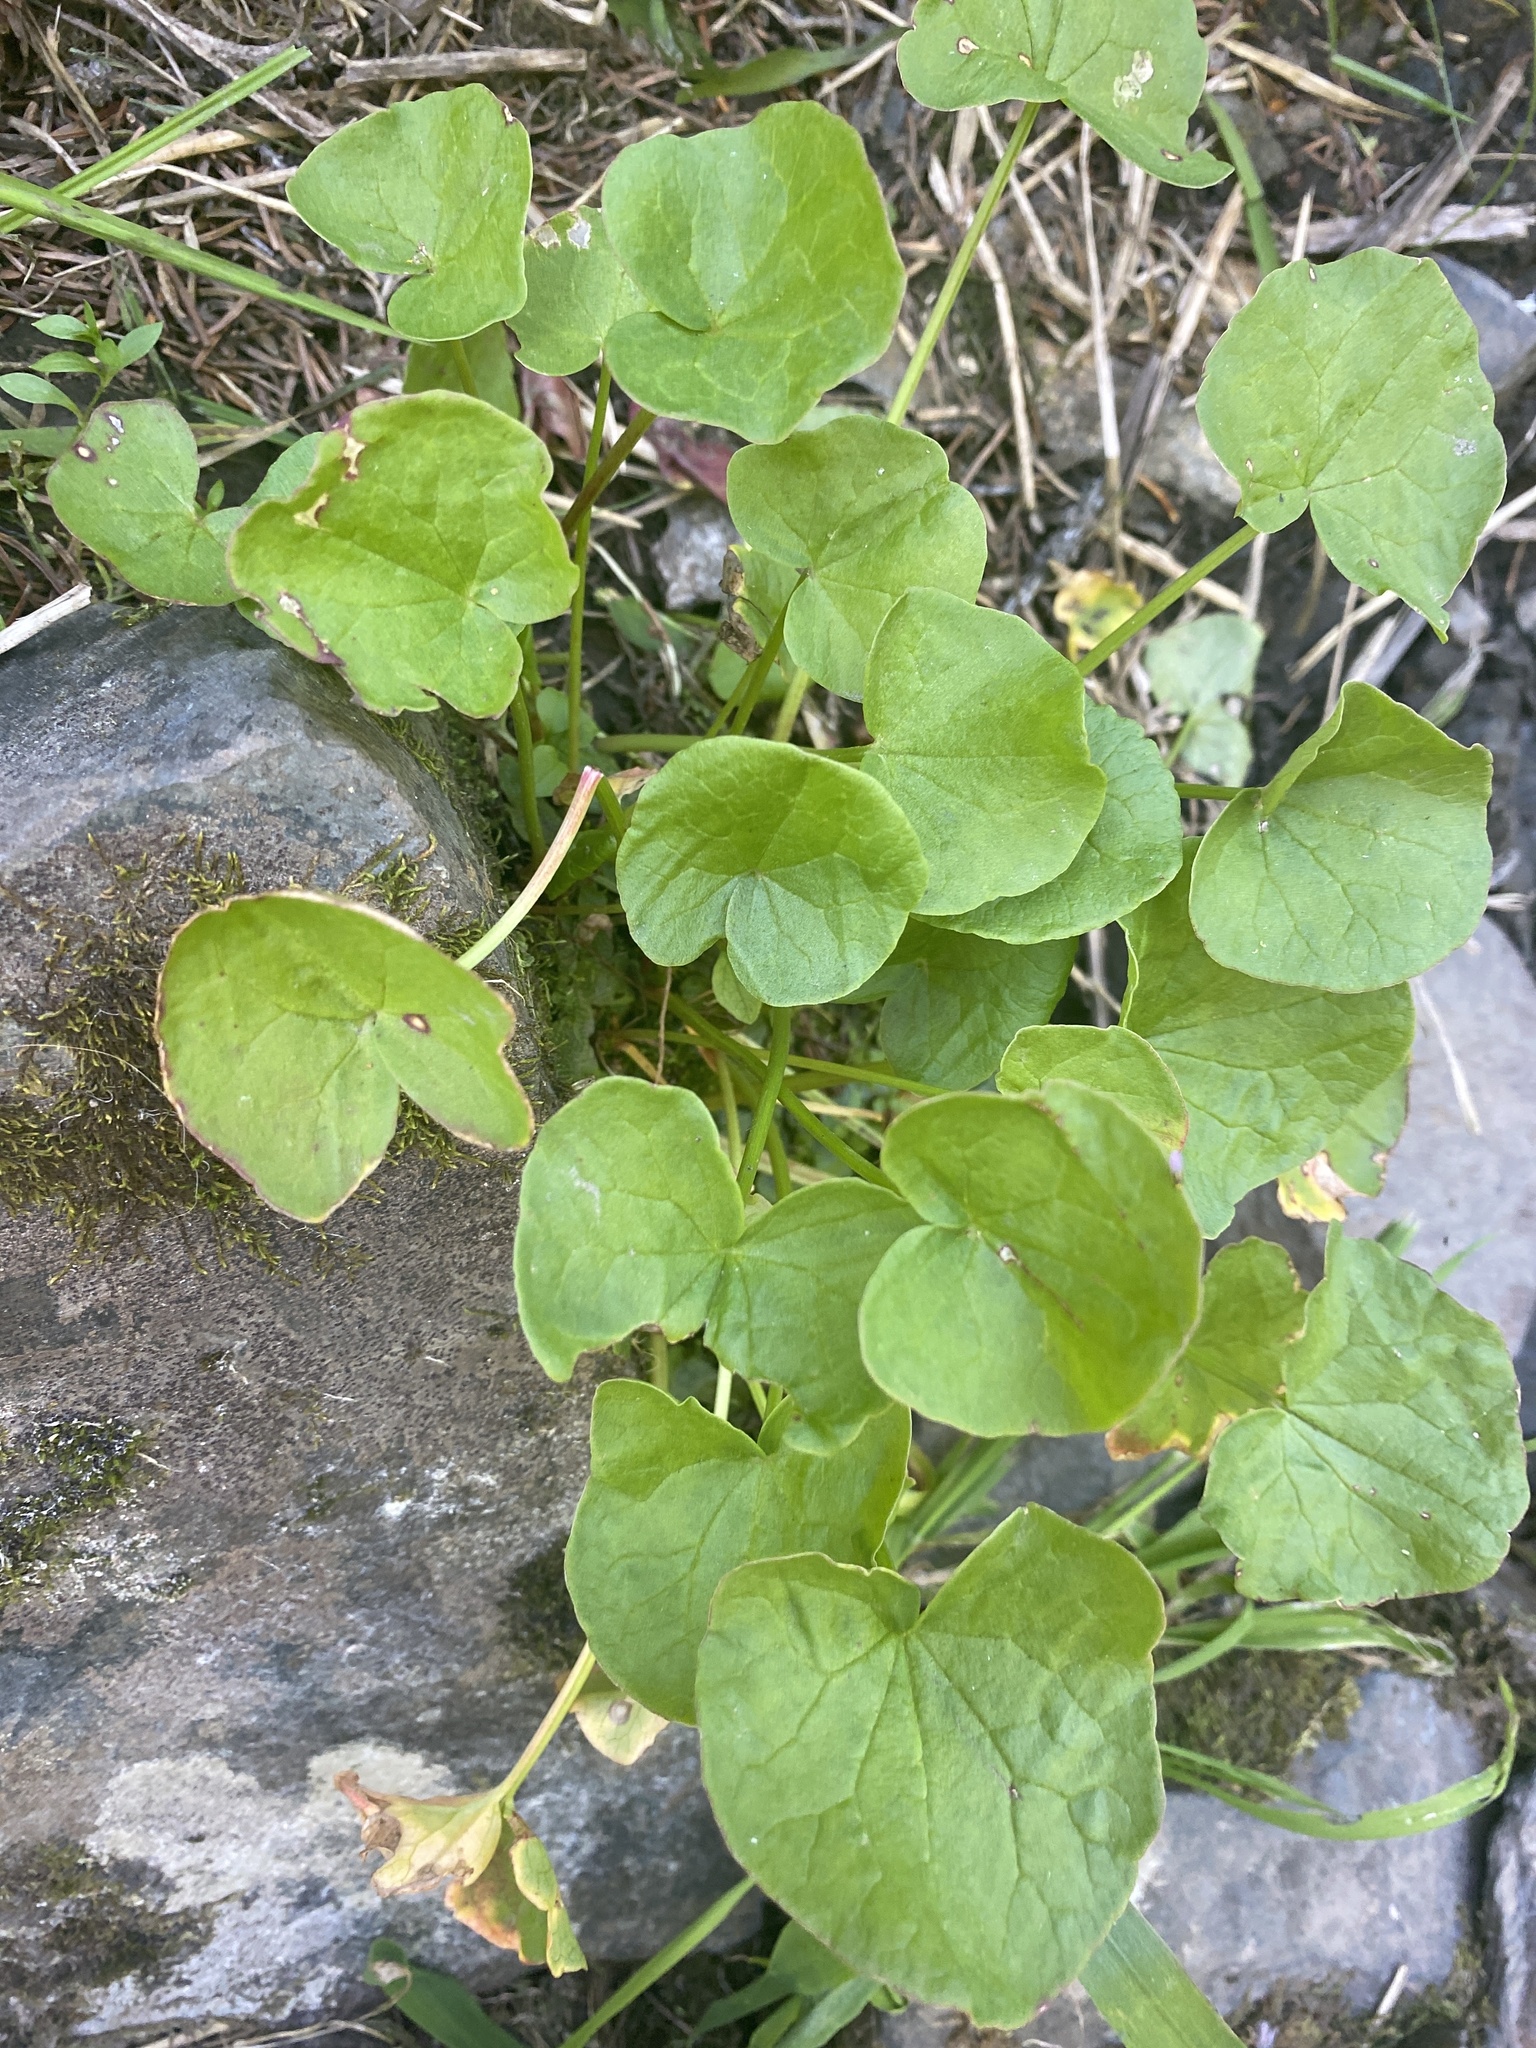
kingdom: Plantae
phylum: Tracheophyta
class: Magnoliopsida
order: Caryophyllales
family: Polygonaceae
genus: Oxyria
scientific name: Oxyria digyna
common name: Alpine mountain-sorrel
